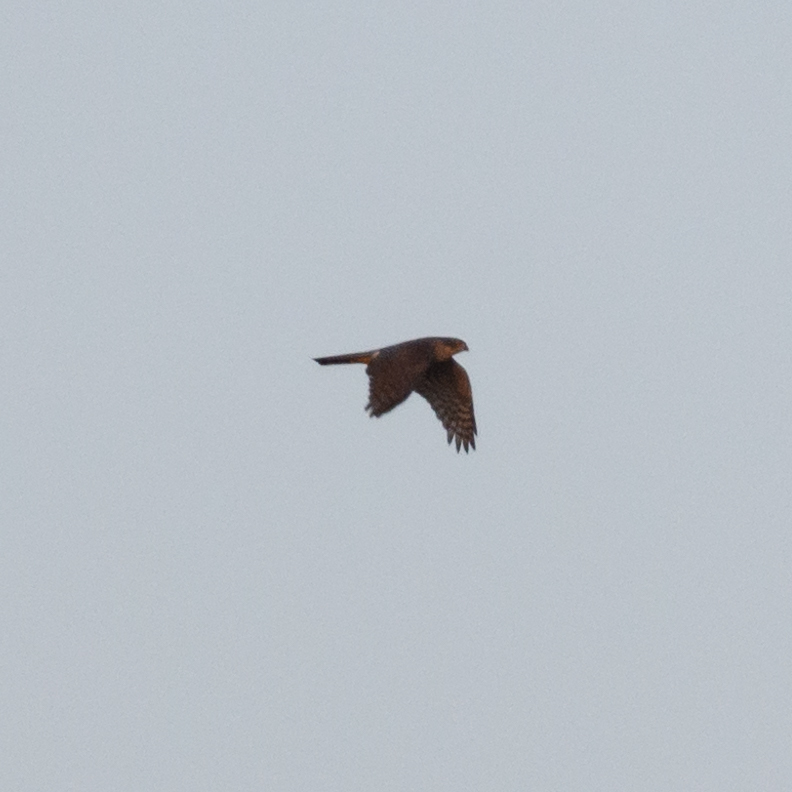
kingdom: Animalia
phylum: Chordata
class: Aves
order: Accipitriformes
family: Accipitridae
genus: Accipiter
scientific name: Accipiter nisus
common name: Eurasian sparrowhawk
